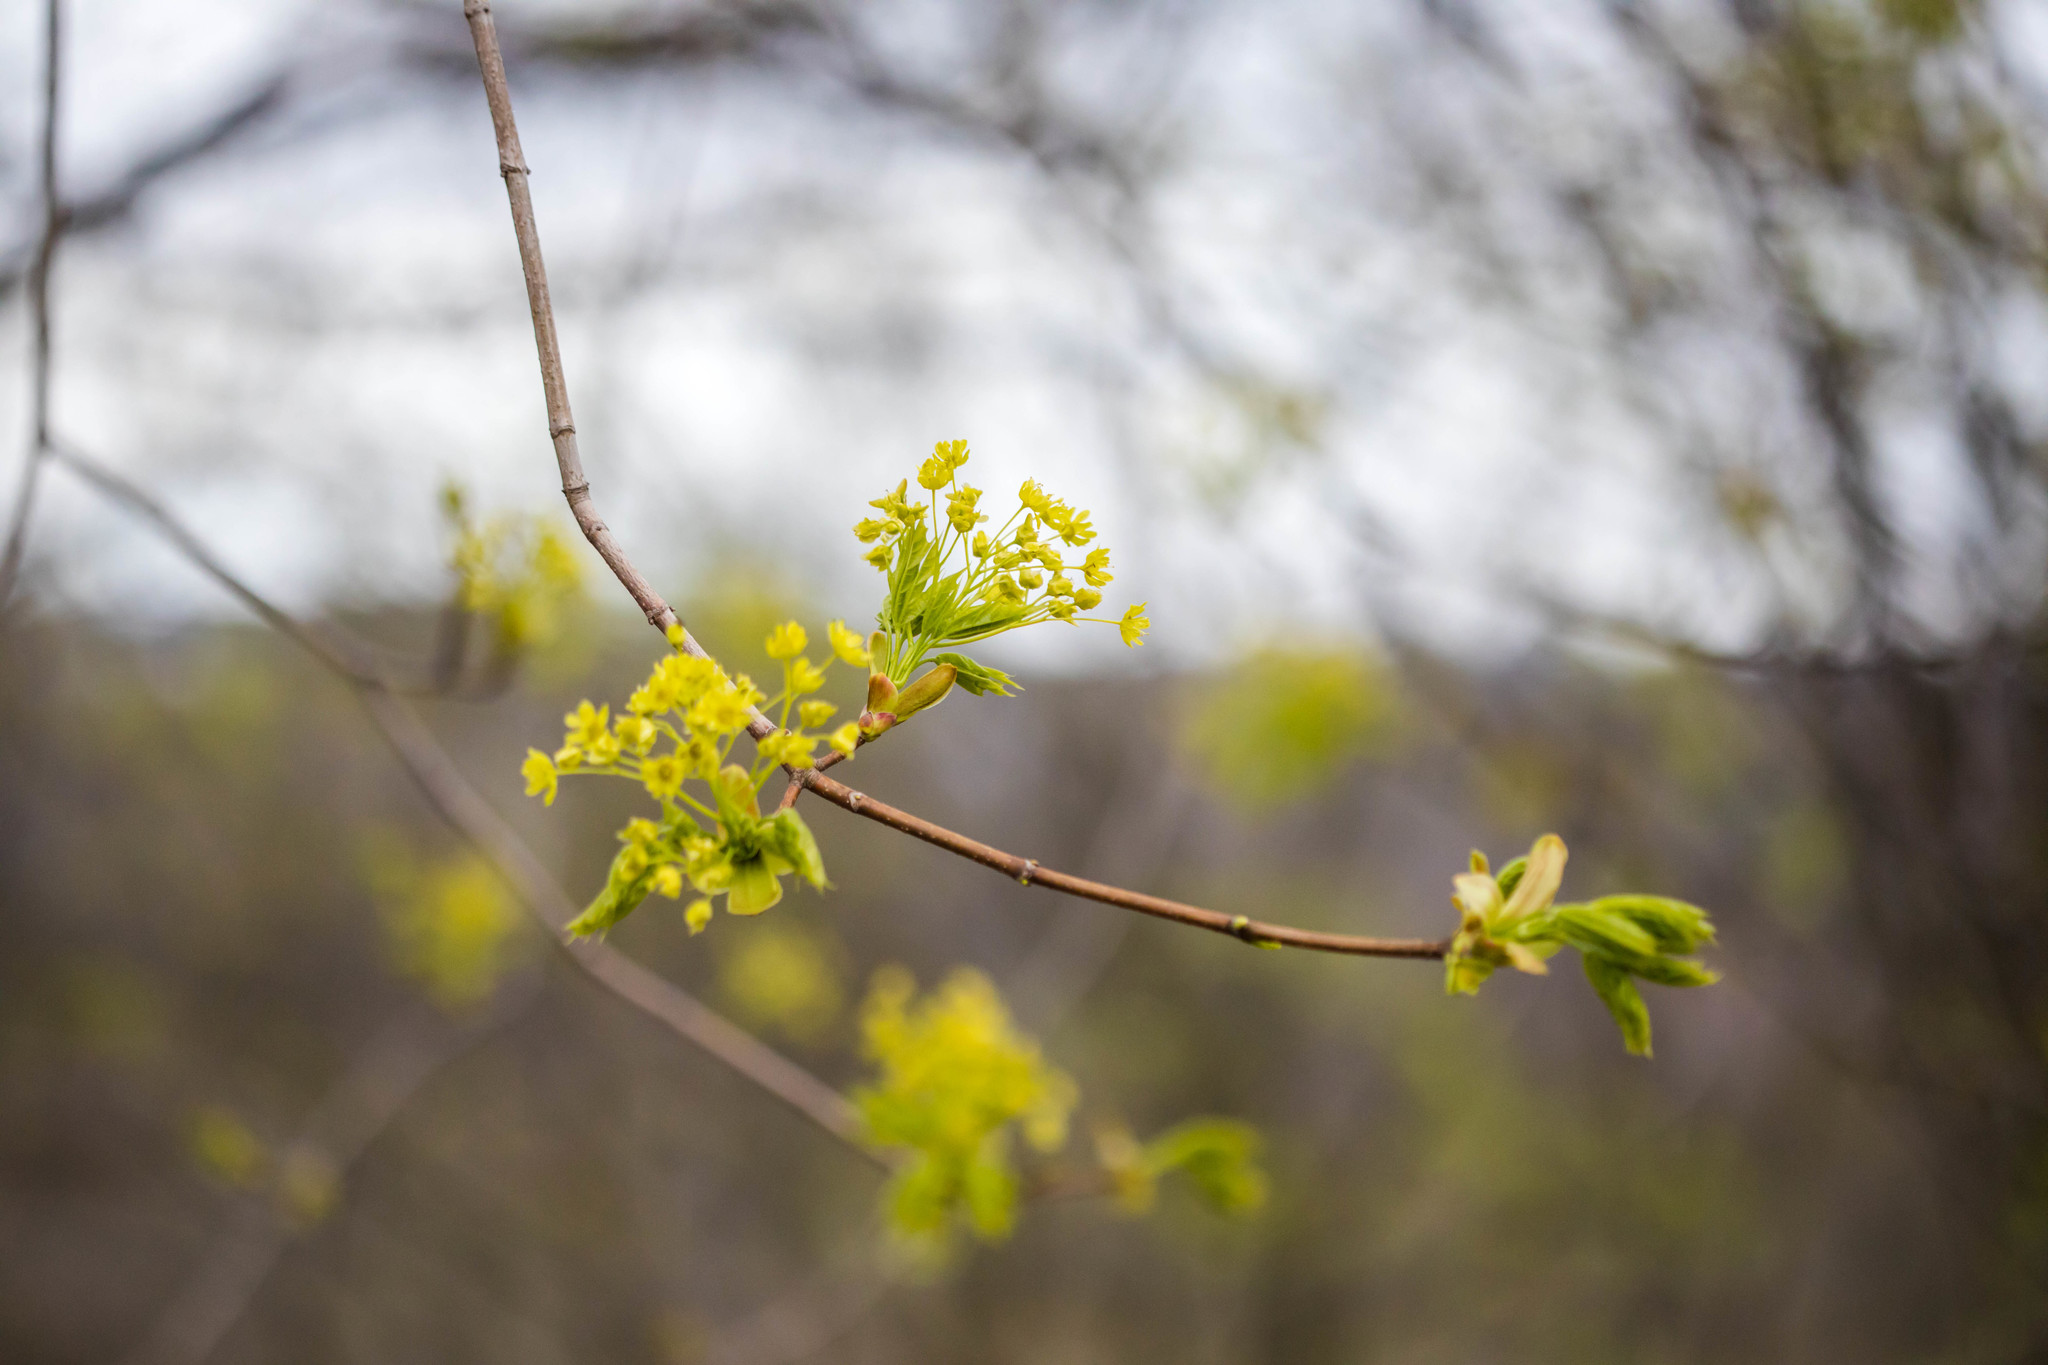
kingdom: Plantae
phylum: Tracheophyta
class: Magnoliopsida
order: Sapindales
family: Sapindaceae
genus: Acer
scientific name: Acer platanoides
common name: Norway maple
